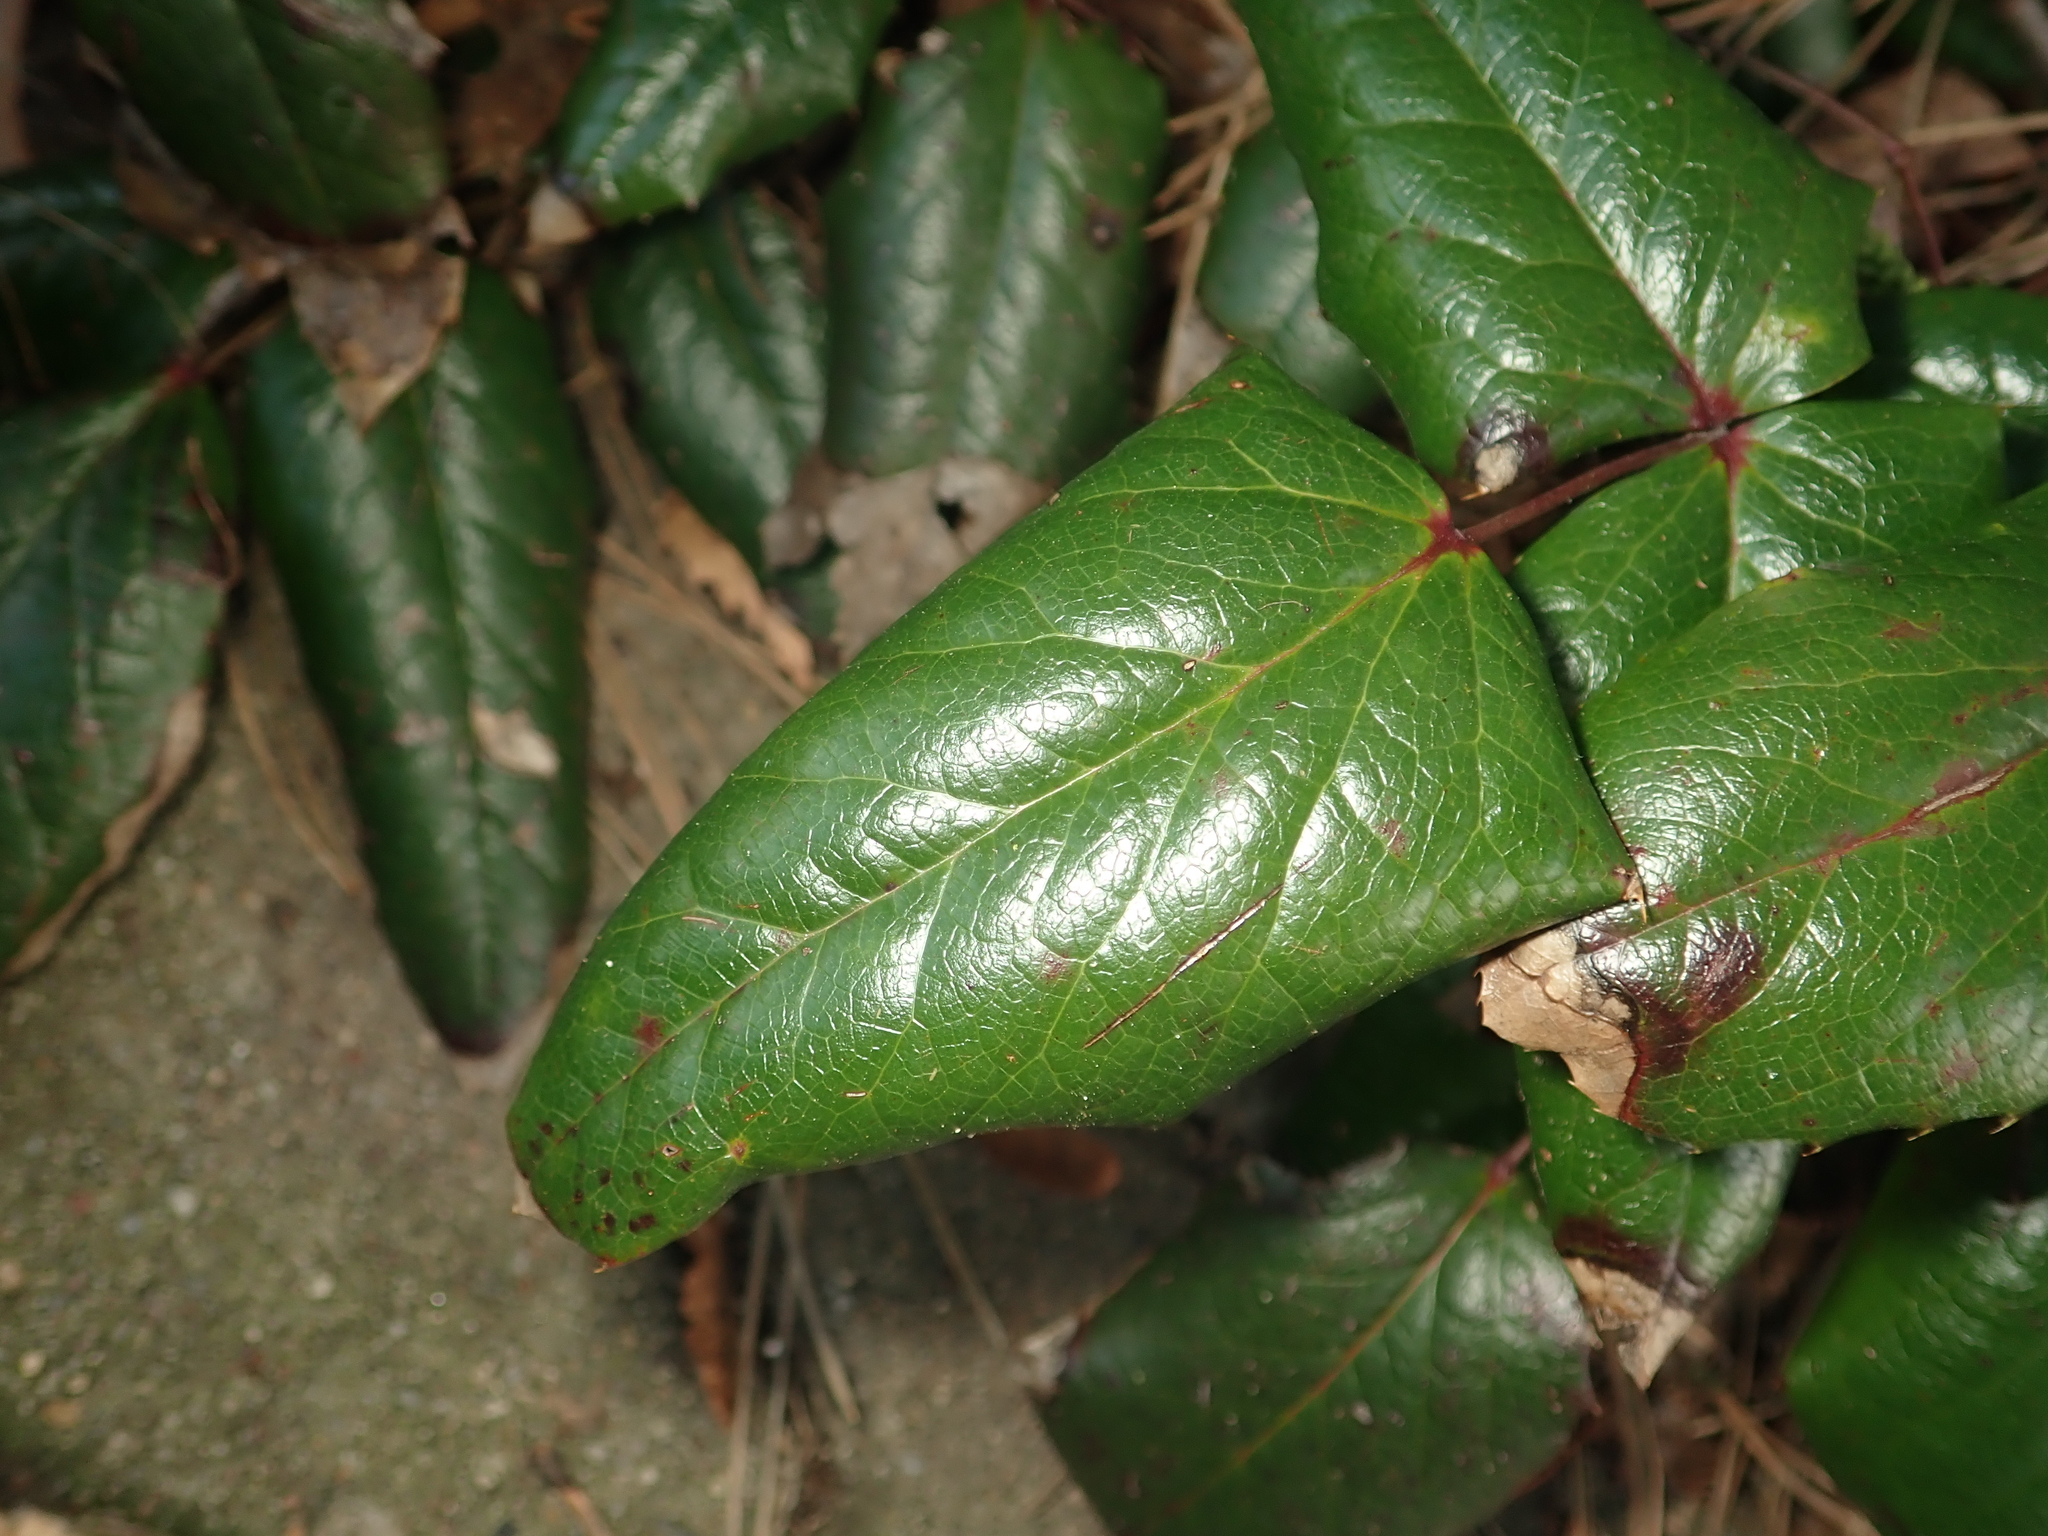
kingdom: Plantae
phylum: Tracheophyta
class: Magnoliopsida
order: Ranunculales
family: Berberidaceae
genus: Mahonia
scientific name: Mahonia aquifolium
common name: Oregon-grape
